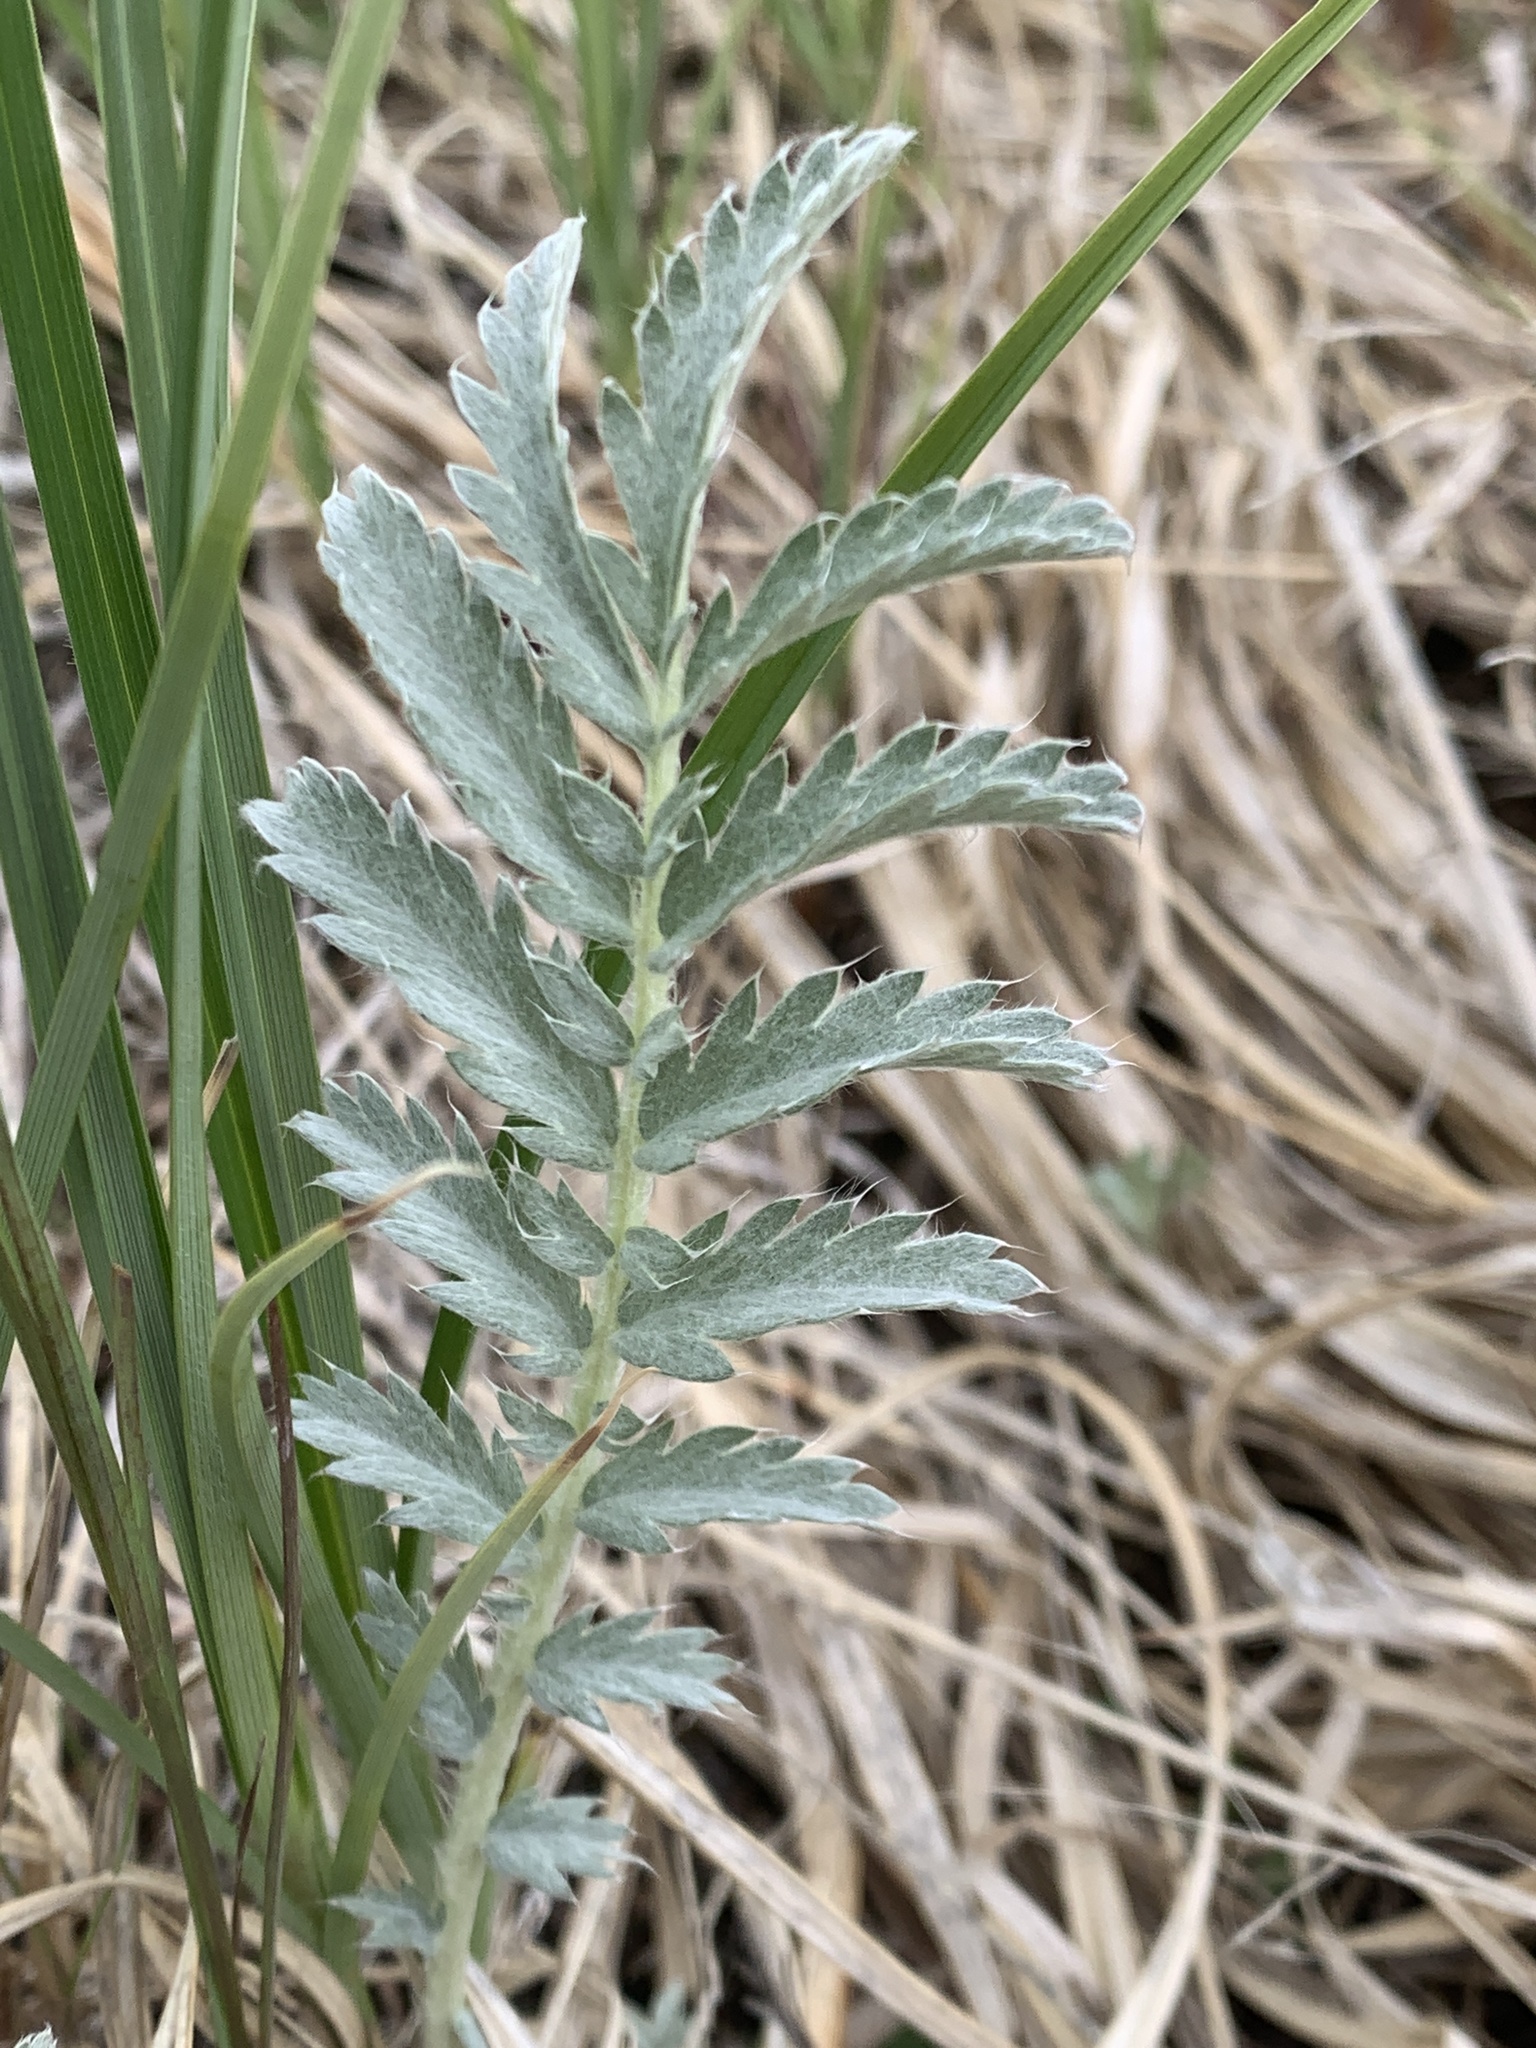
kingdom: Plantae
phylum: Tracheophyta
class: Magnoliopsida
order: Rosales
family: Rosaceae
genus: Argentina
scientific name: Argentina anserina
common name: Common silverweed
